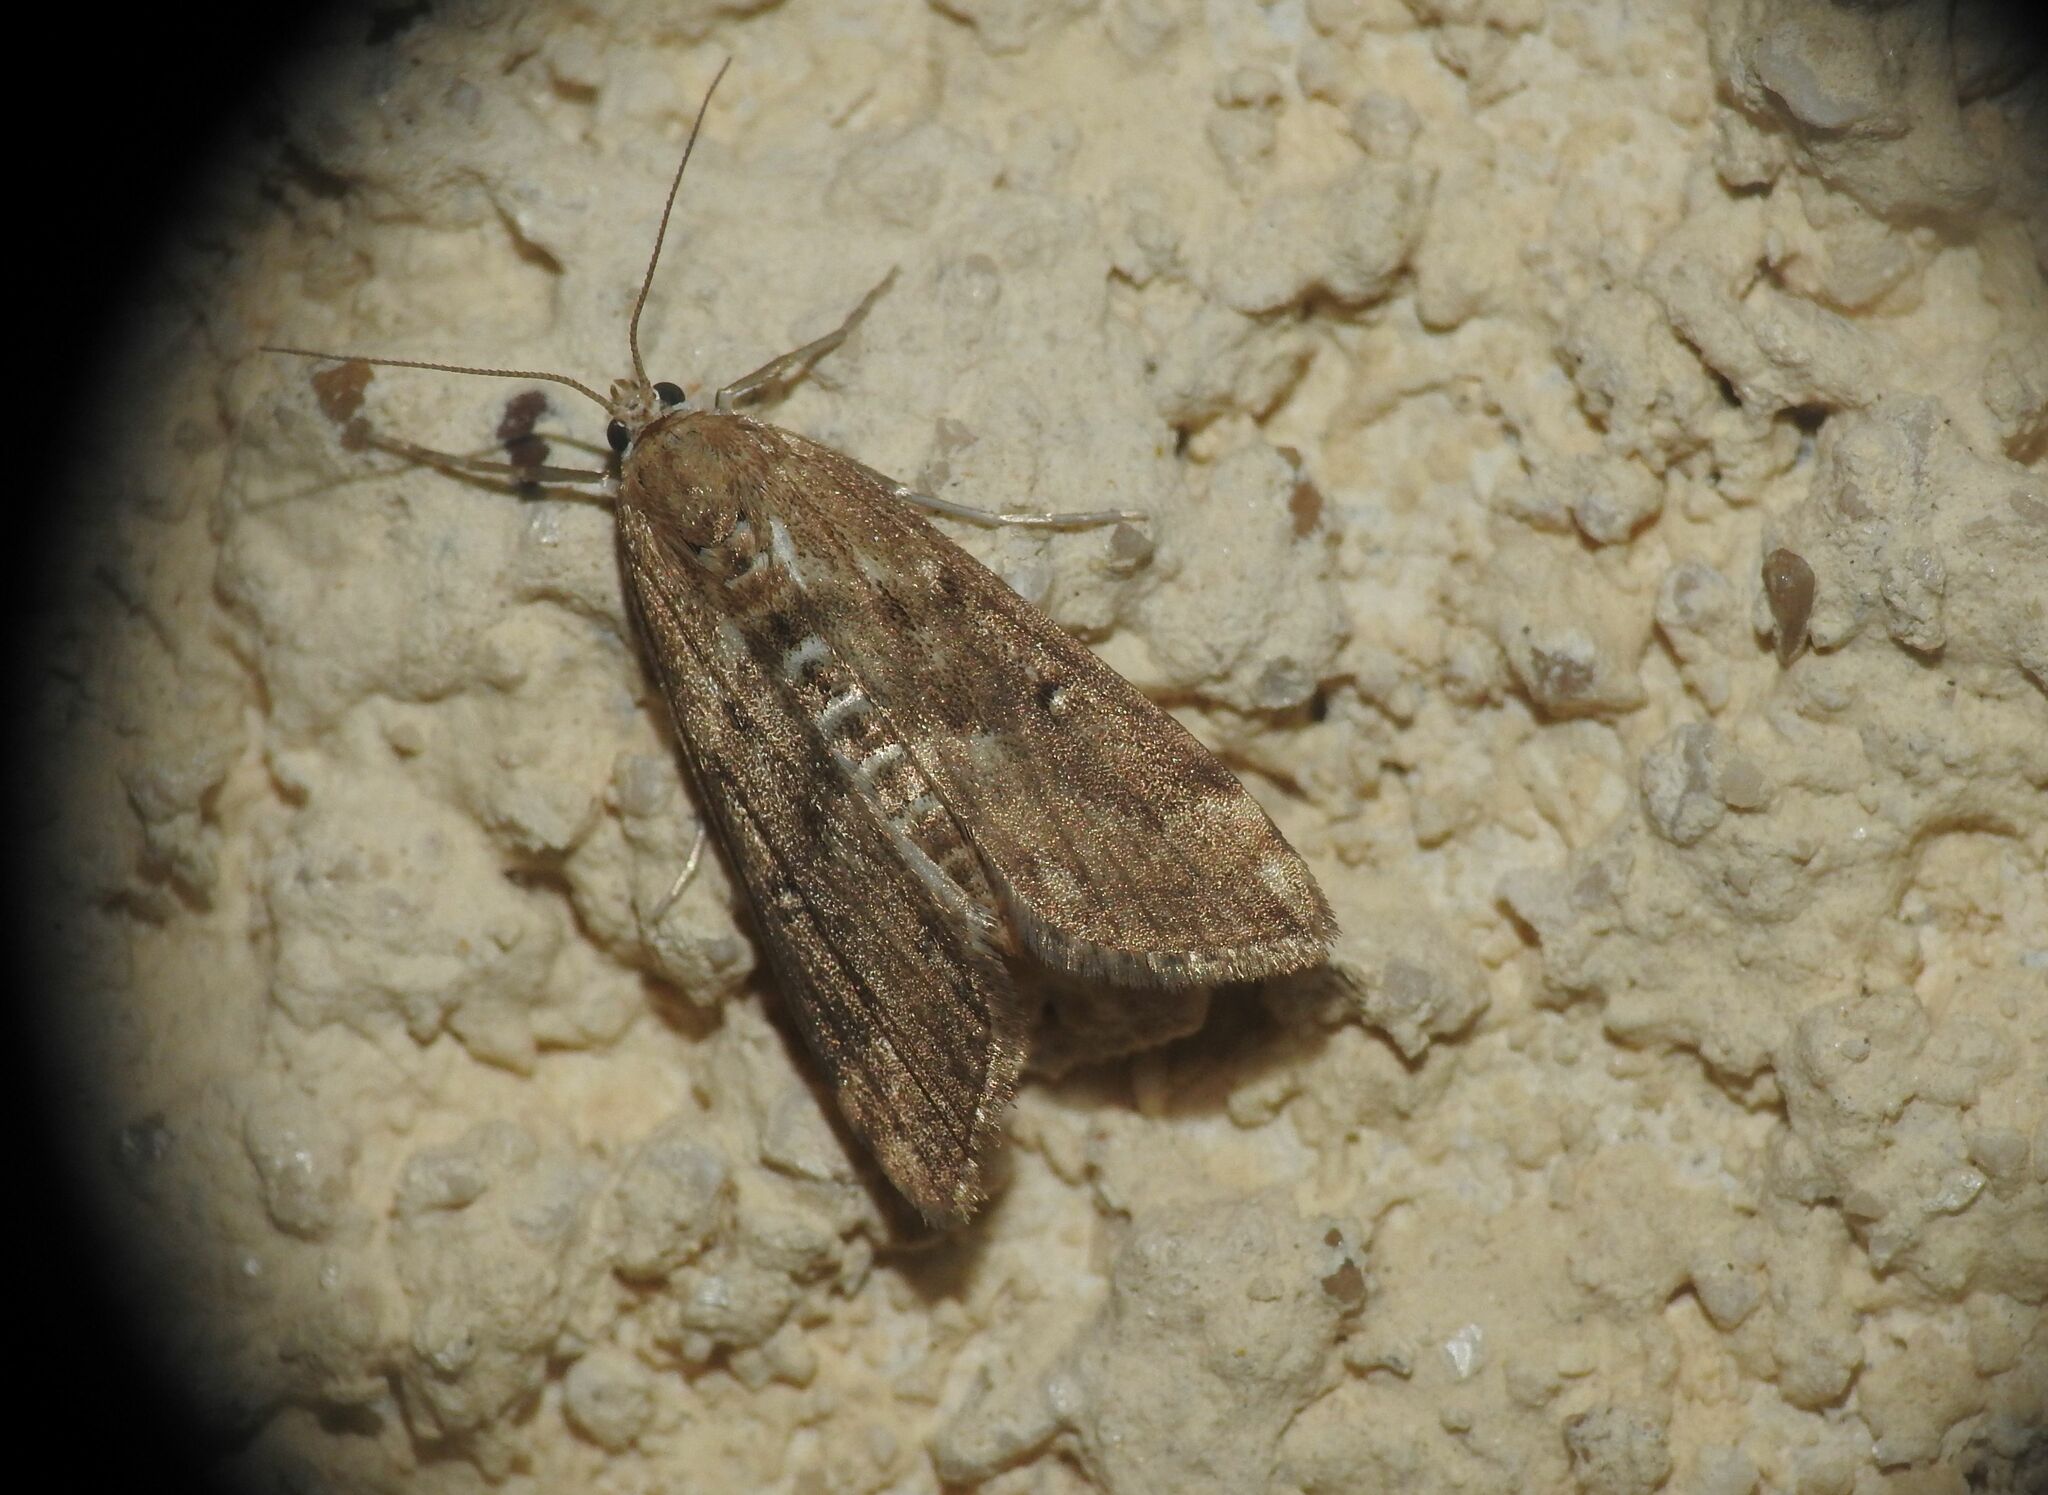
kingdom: Animalia
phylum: Arthropoda
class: Insecta
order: Lepidoptera
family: Crambidae
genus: Parapoynx
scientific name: Parapoynx stratiotata
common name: Ringed china-mark
